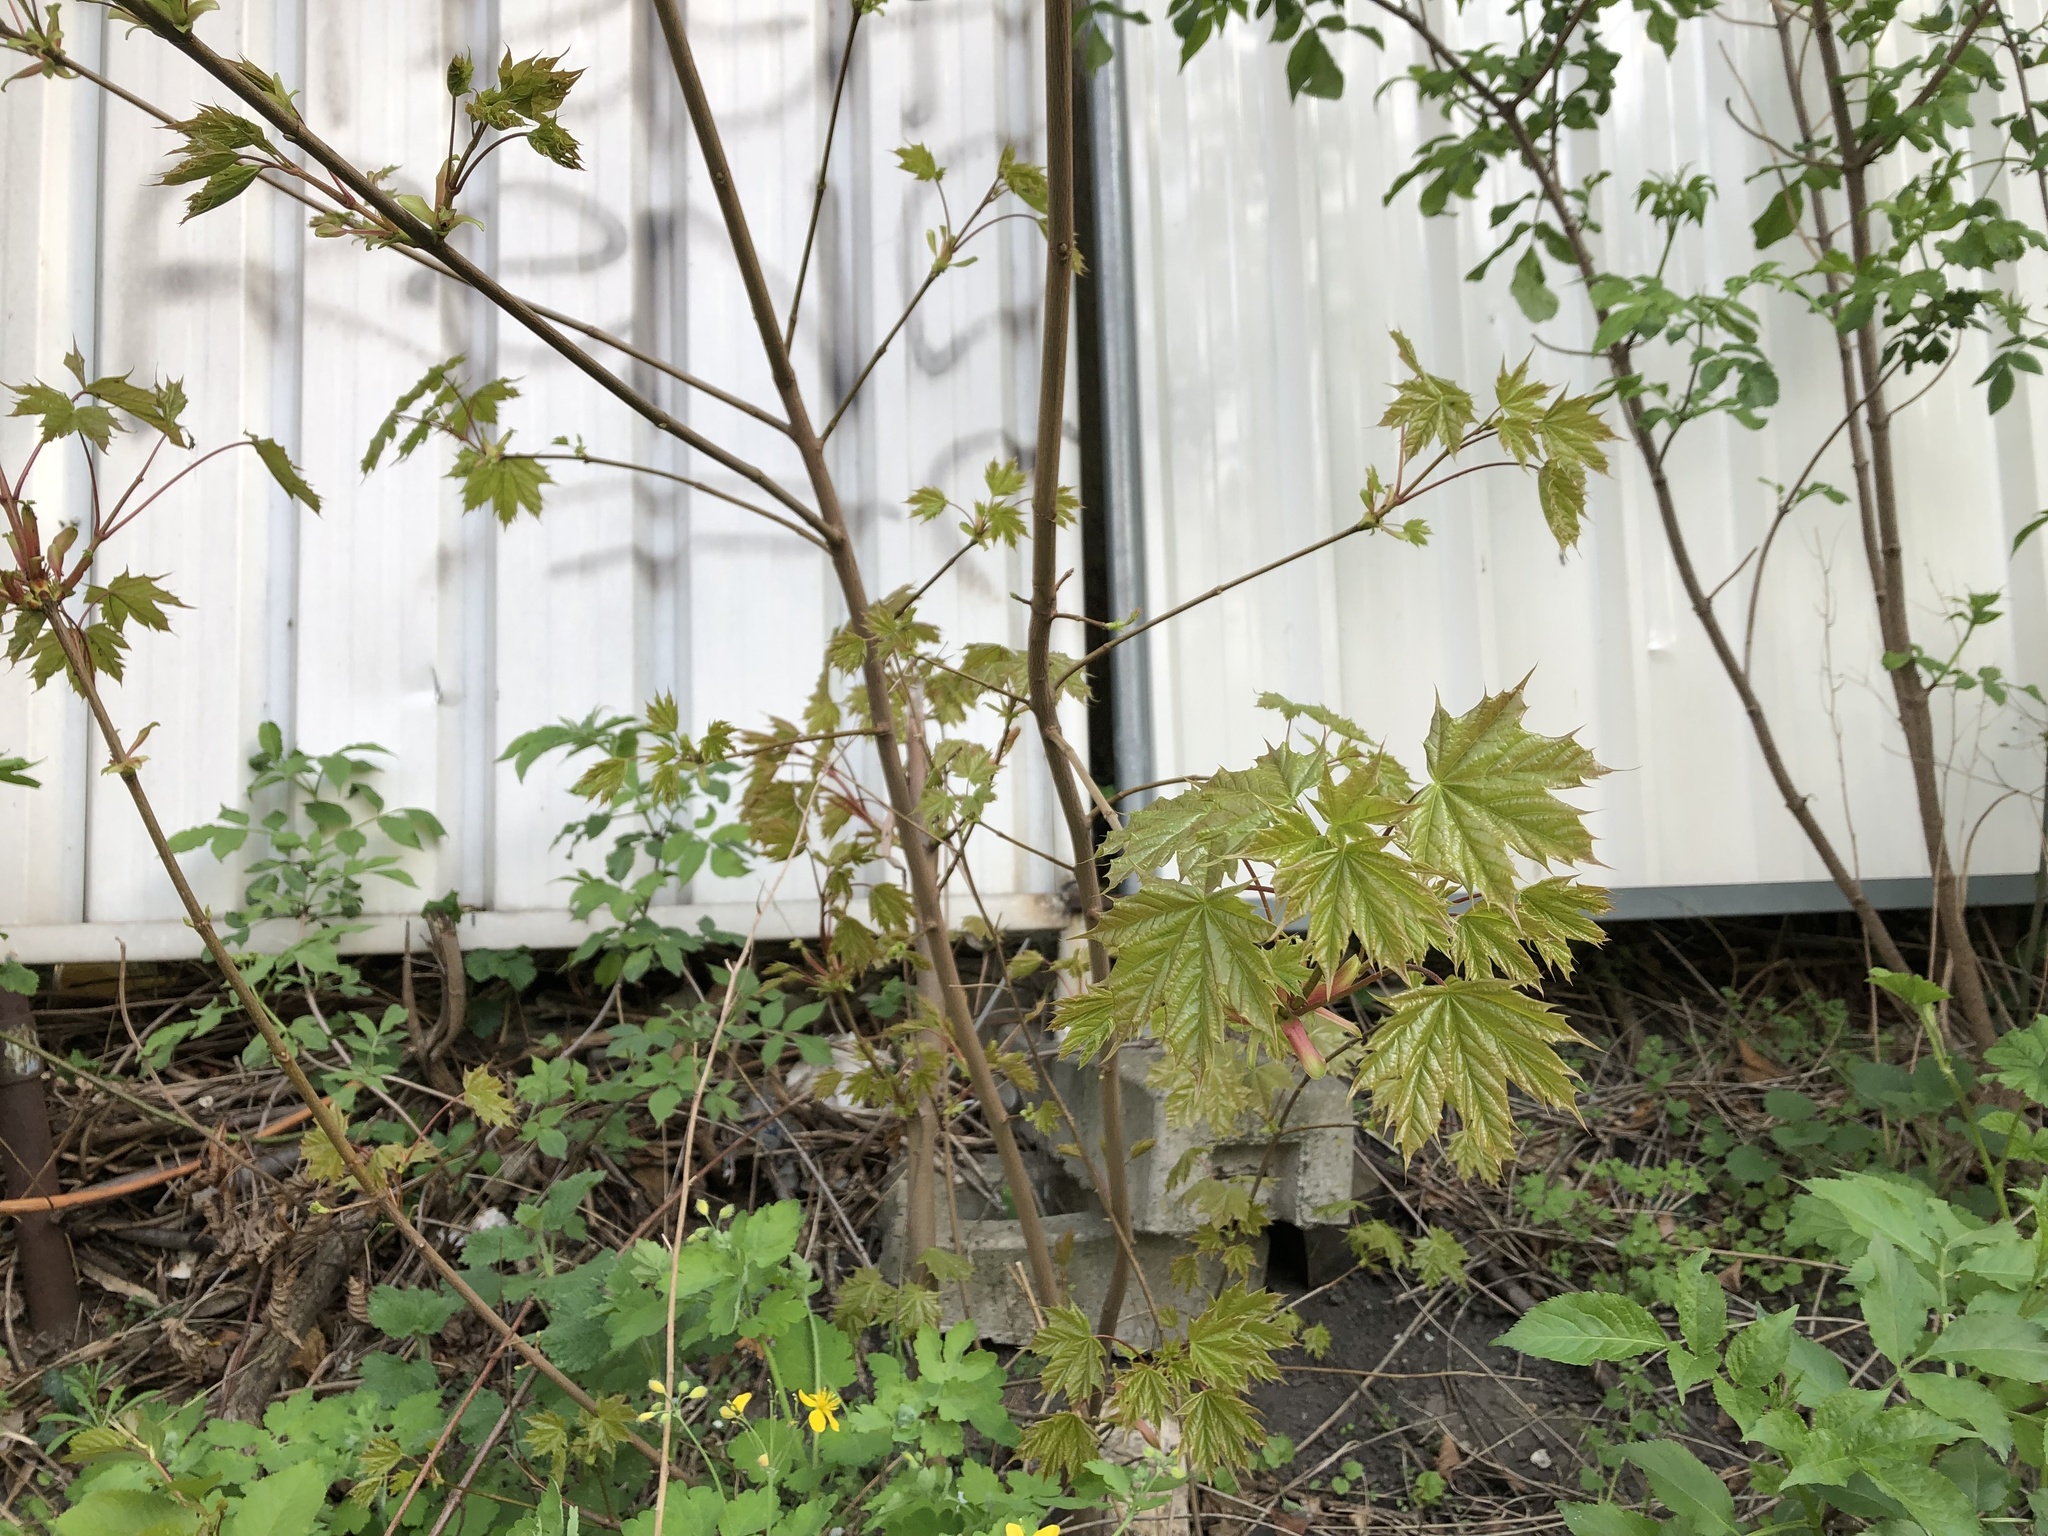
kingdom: Plantae
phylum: Tracheophyta
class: Magnoliopsida
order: Sapindales
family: Sapindaceae
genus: Acer
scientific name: Acer platanoides
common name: Norway maple
